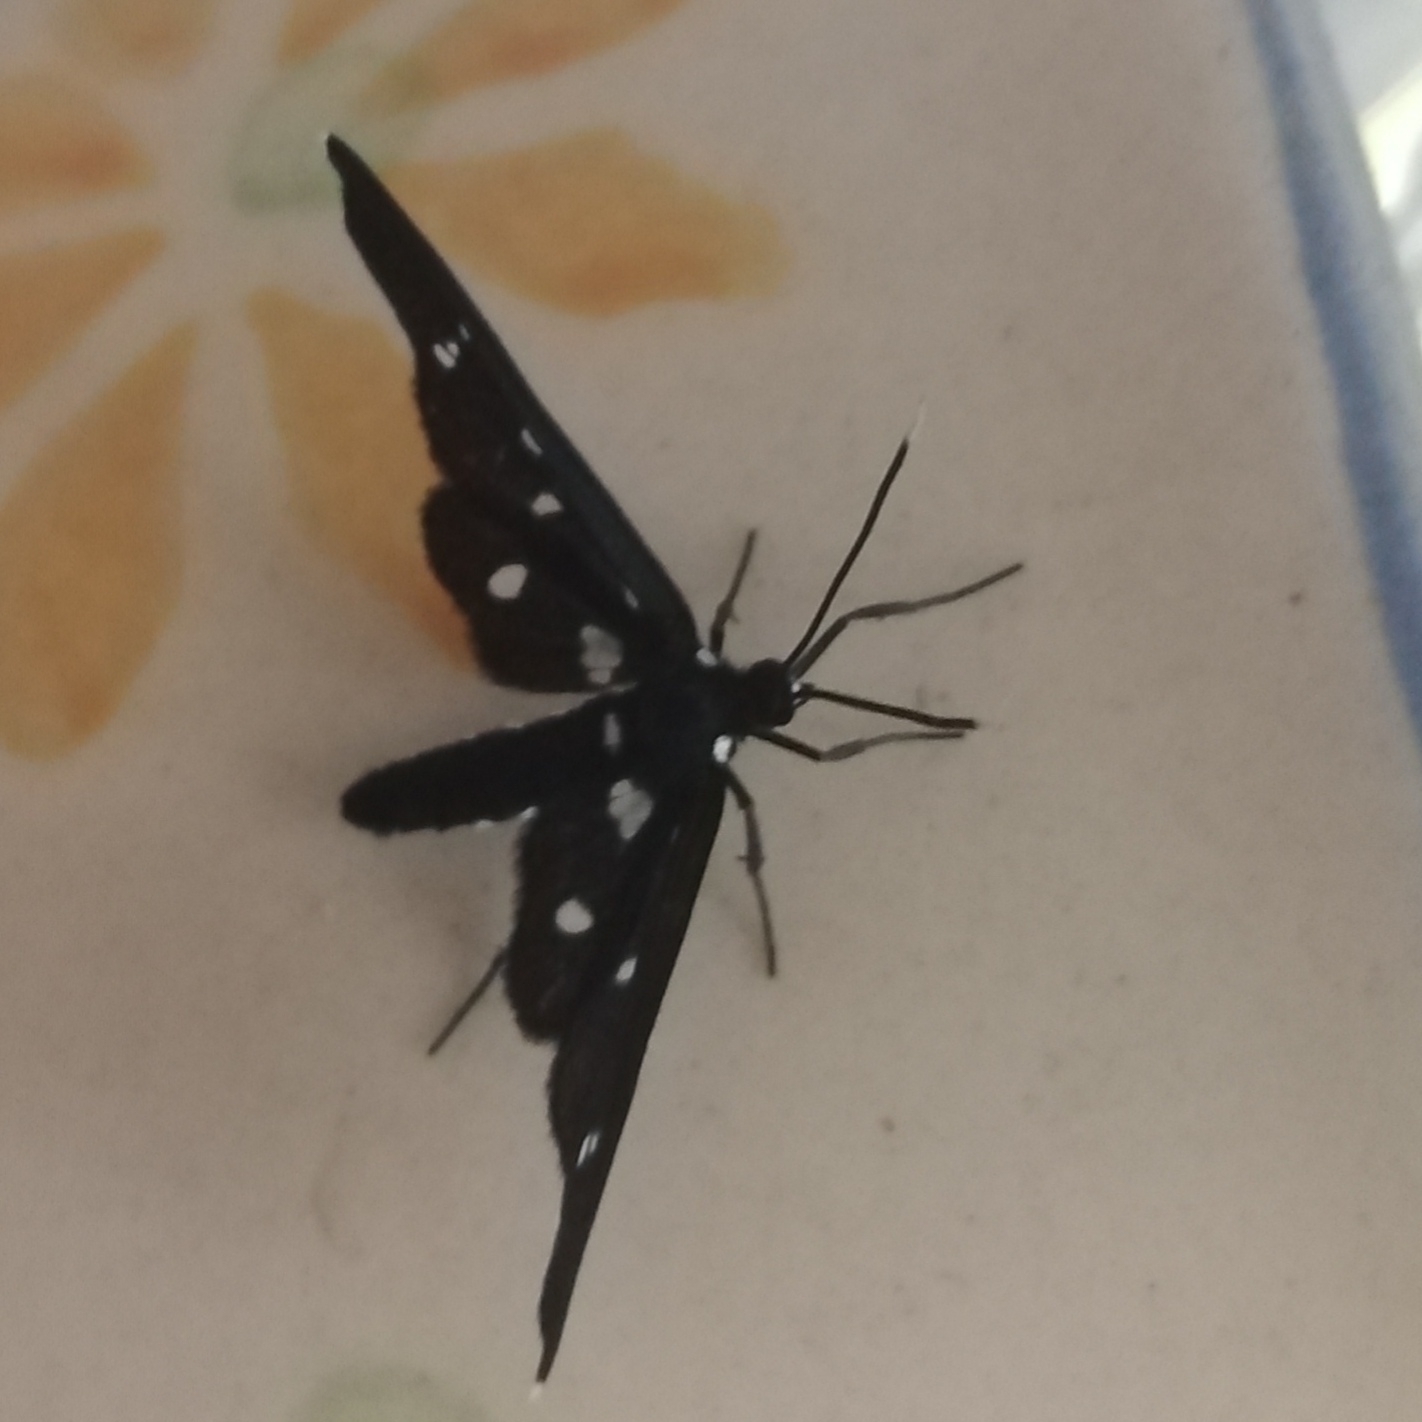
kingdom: Animalia
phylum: Arthropoda
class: Insecta
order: Lepidoptera
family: Erebidae
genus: Ceryx
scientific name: Ceryx longipes
